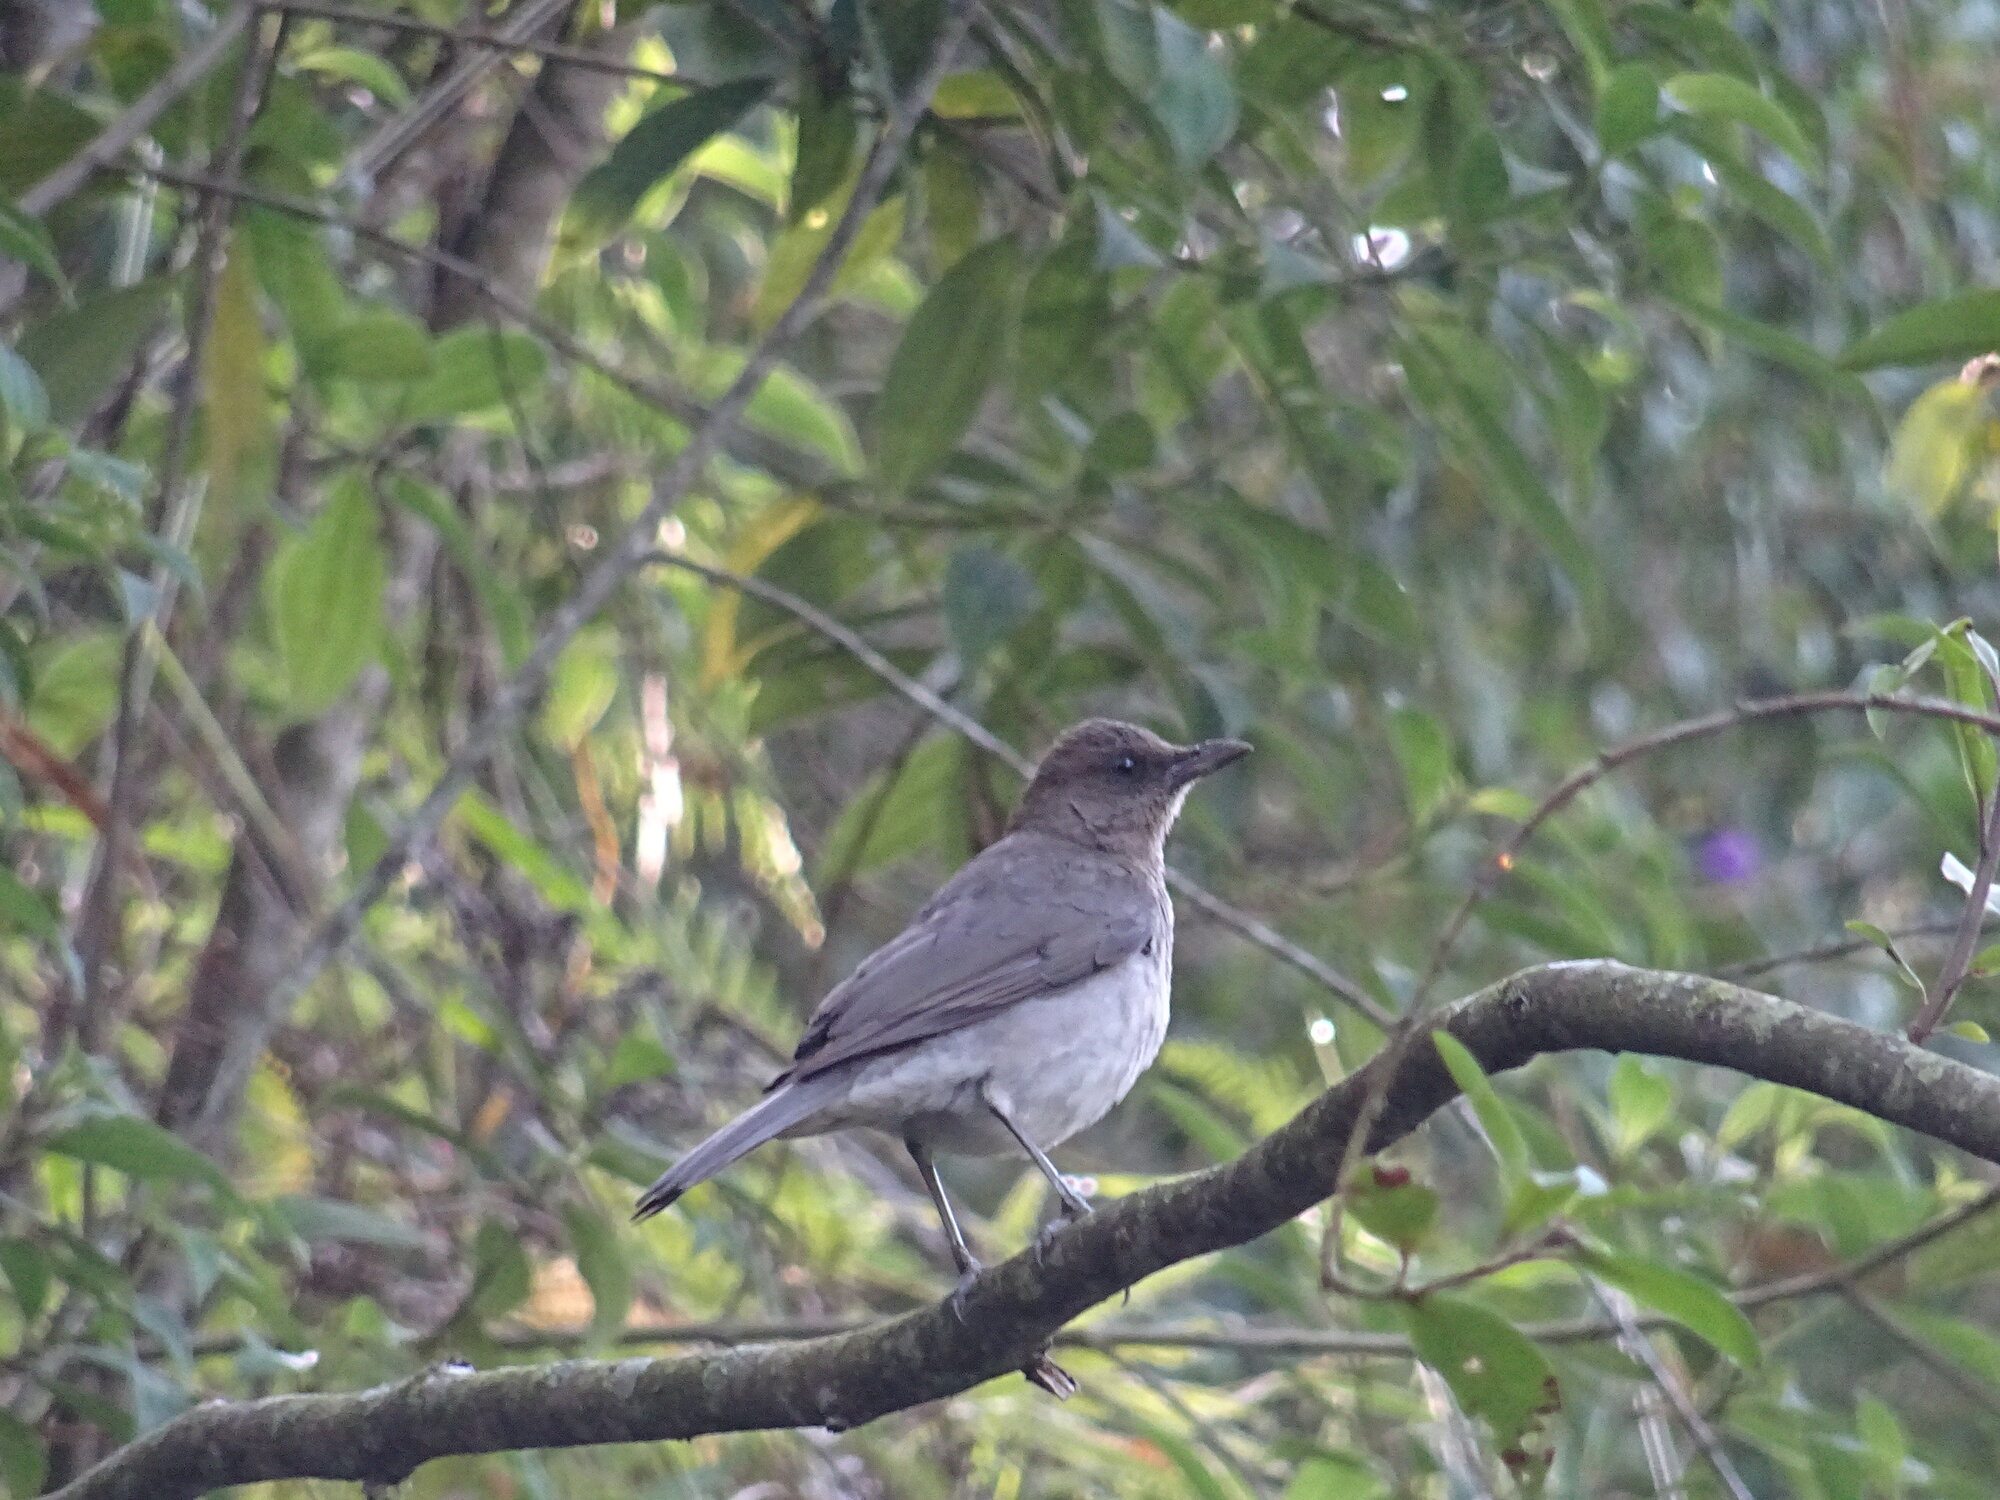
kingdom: Animalia
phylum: Chordata
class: Aves
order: Passeriformes
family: Turdidae
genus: Turdus
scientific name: Turdus ignobilis
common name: Black-billed thrush
